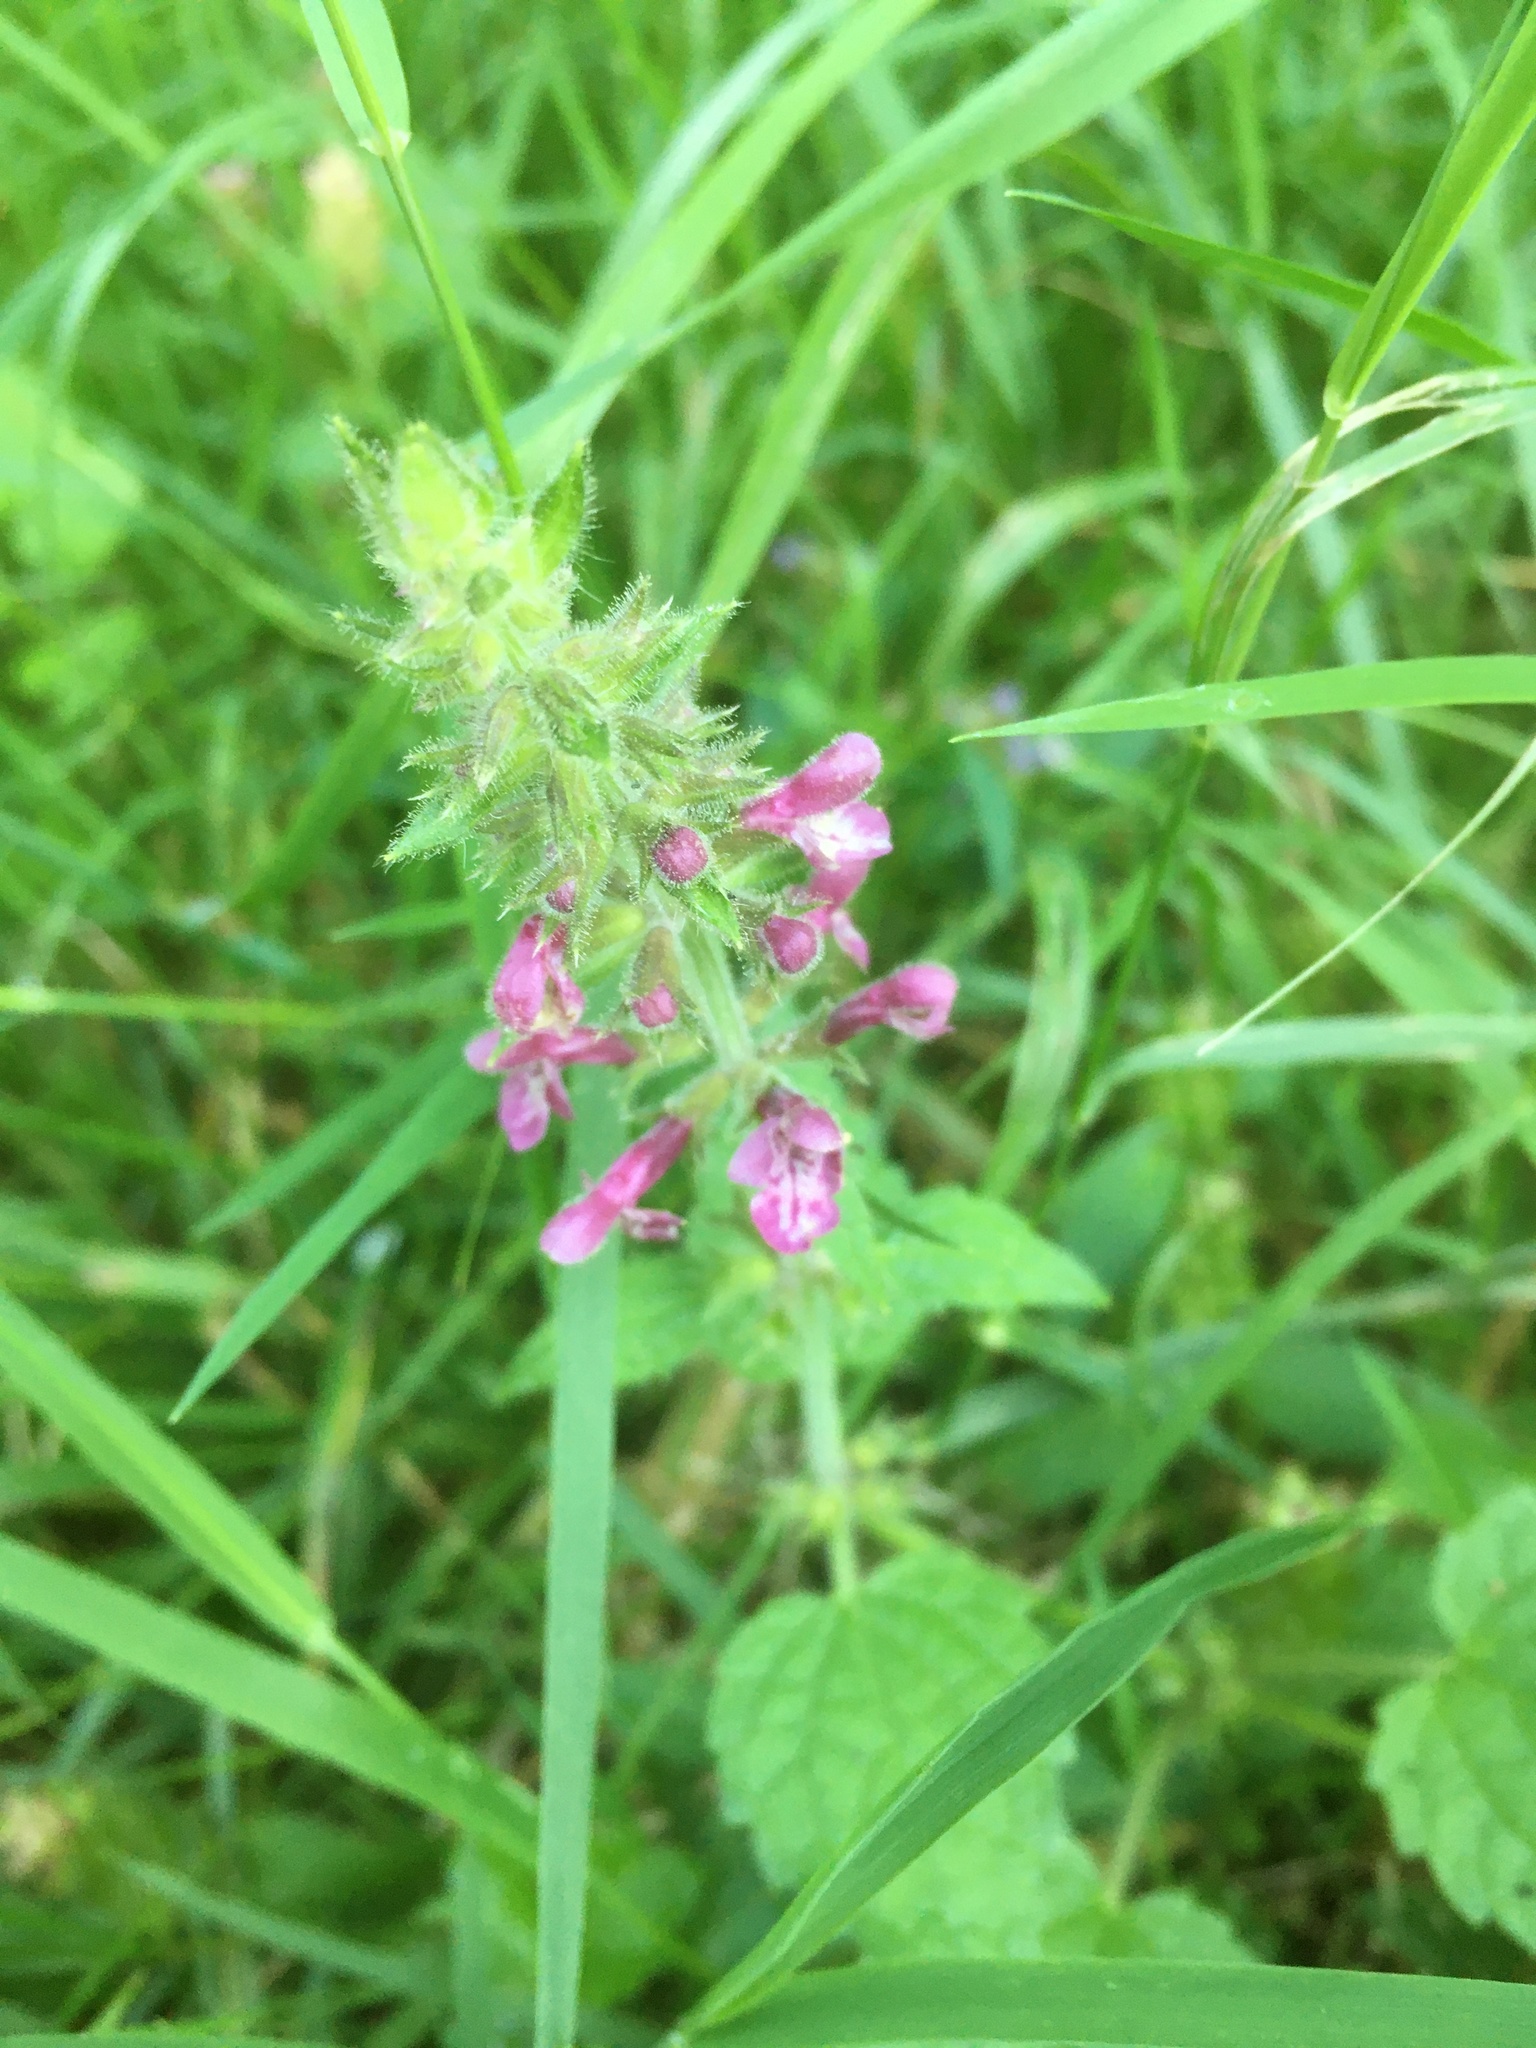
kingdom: Plantae
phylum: Tracheophyta
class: Magnoliopsida
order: Lamiales
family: Lamiaceae
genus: Stachys
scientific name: Stachys sylvatica
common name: Hedge woundwort
